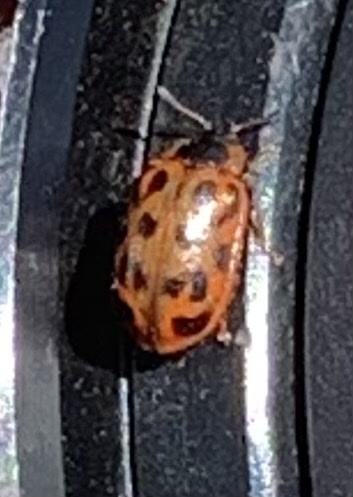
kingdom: Animalia
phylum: Arthropoda
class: Insecta
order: Coleoptera
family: Chrysomelidae
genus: Chrysomela
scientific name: Chrysomela mainensis
